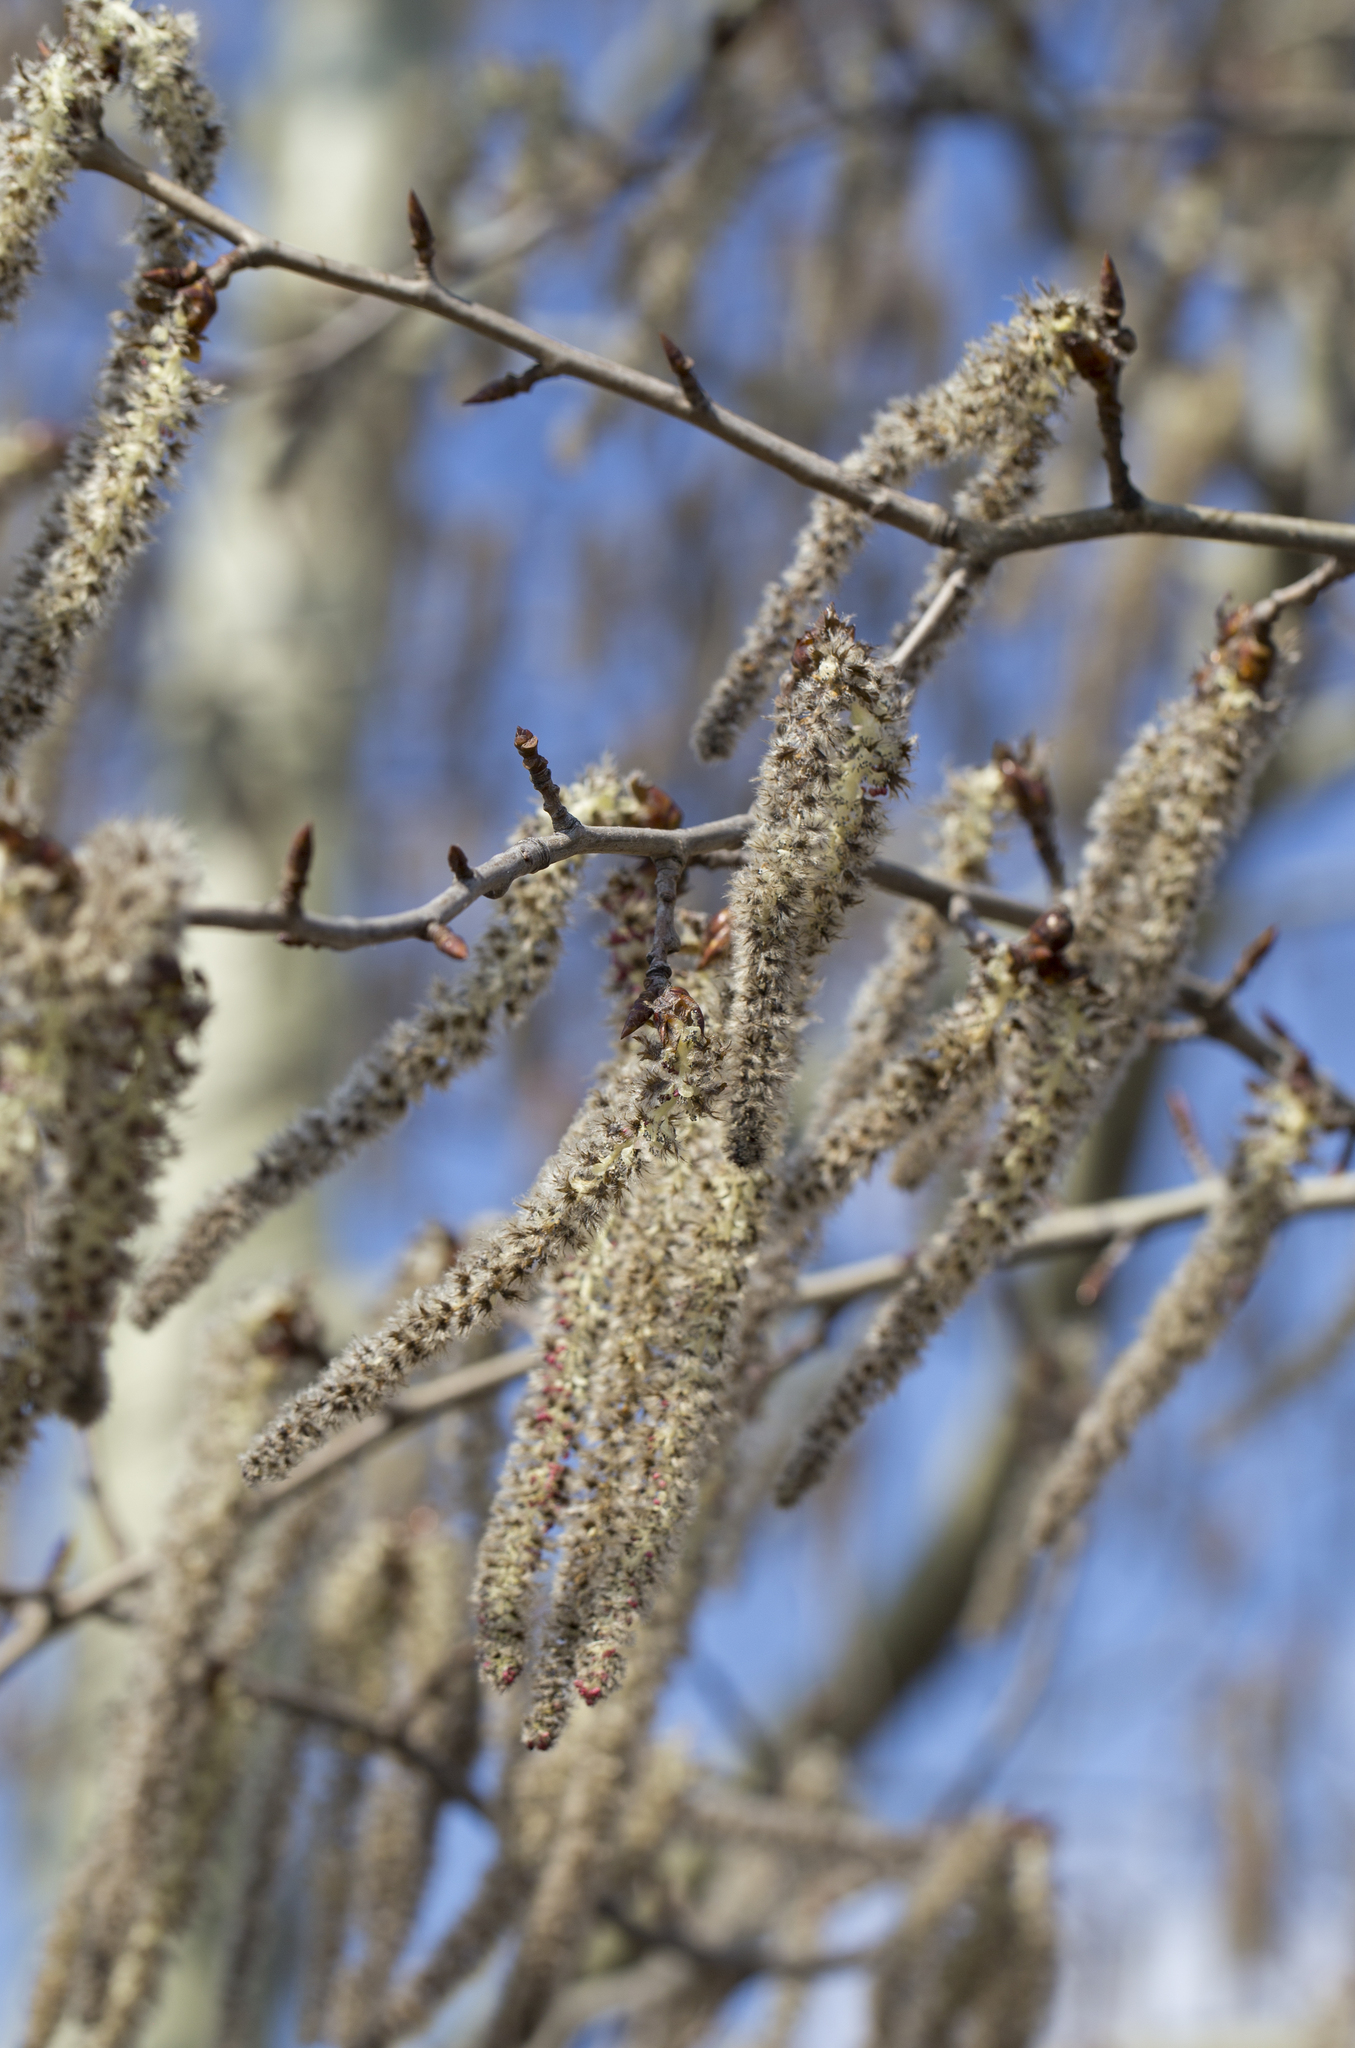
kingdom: Plantae
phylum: Tracheophyta
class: Magnoliopsida
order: Malpighiales
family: Salicaceae
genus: Populus
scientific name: Populus tremula
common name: European aspen
